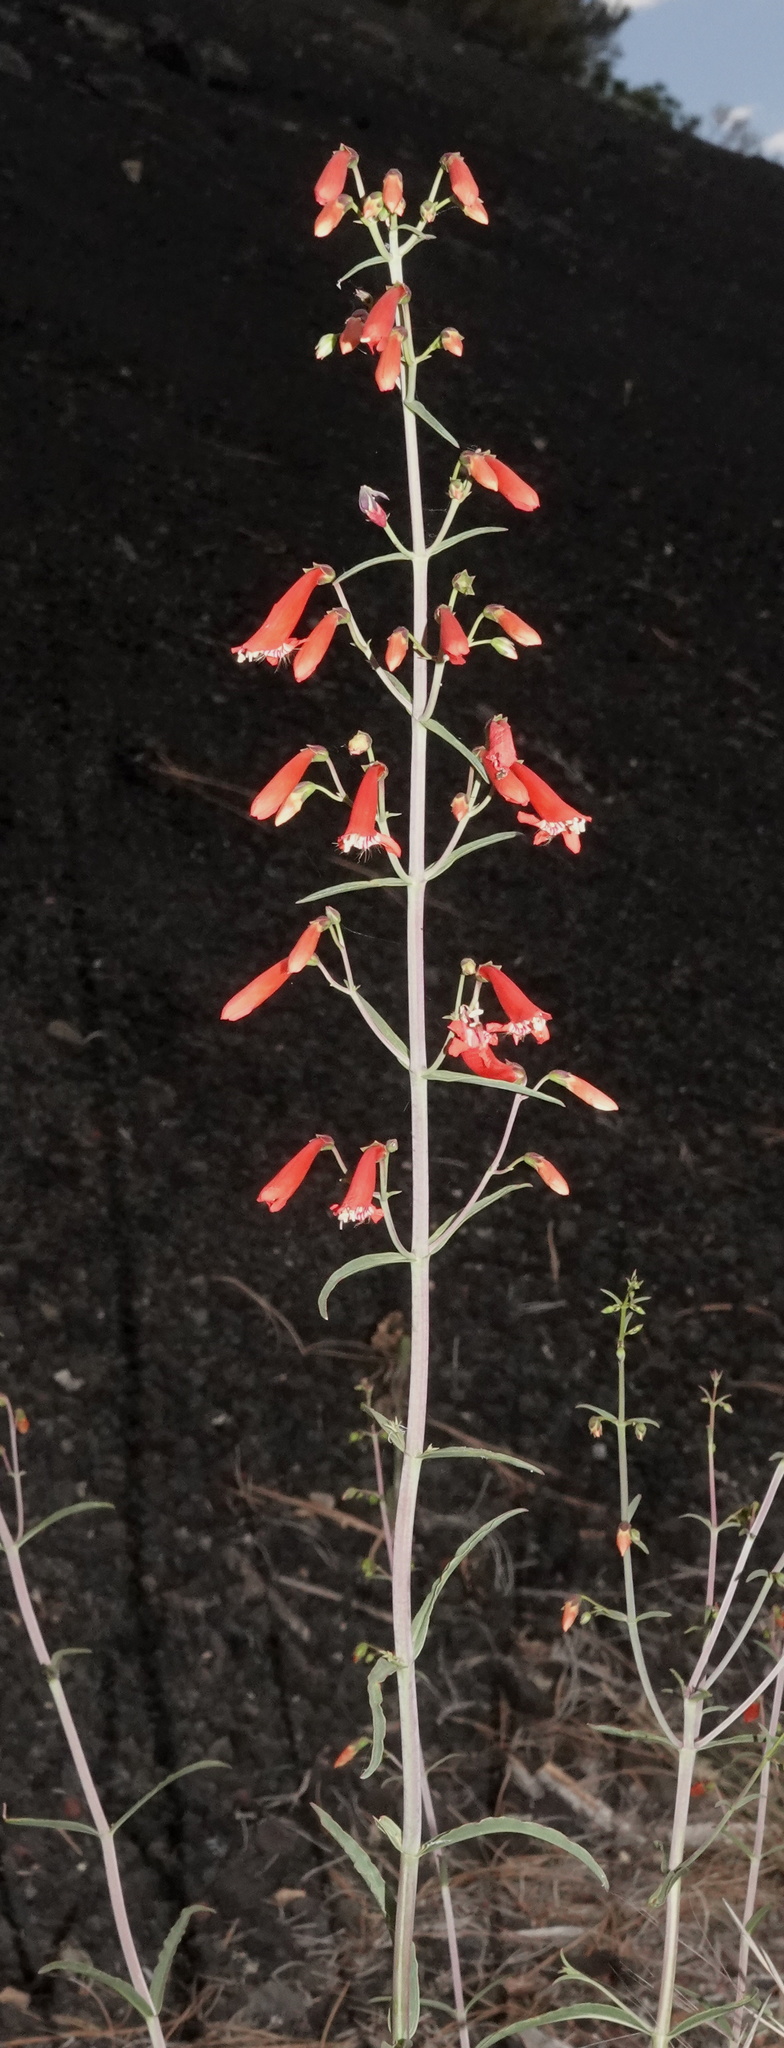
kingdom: Plantae
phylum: Tracheophyta
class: Magnoliopsida
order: Lamiales
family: Plantaginaceae
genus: Penstemon
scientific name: Penstemon barbatus
